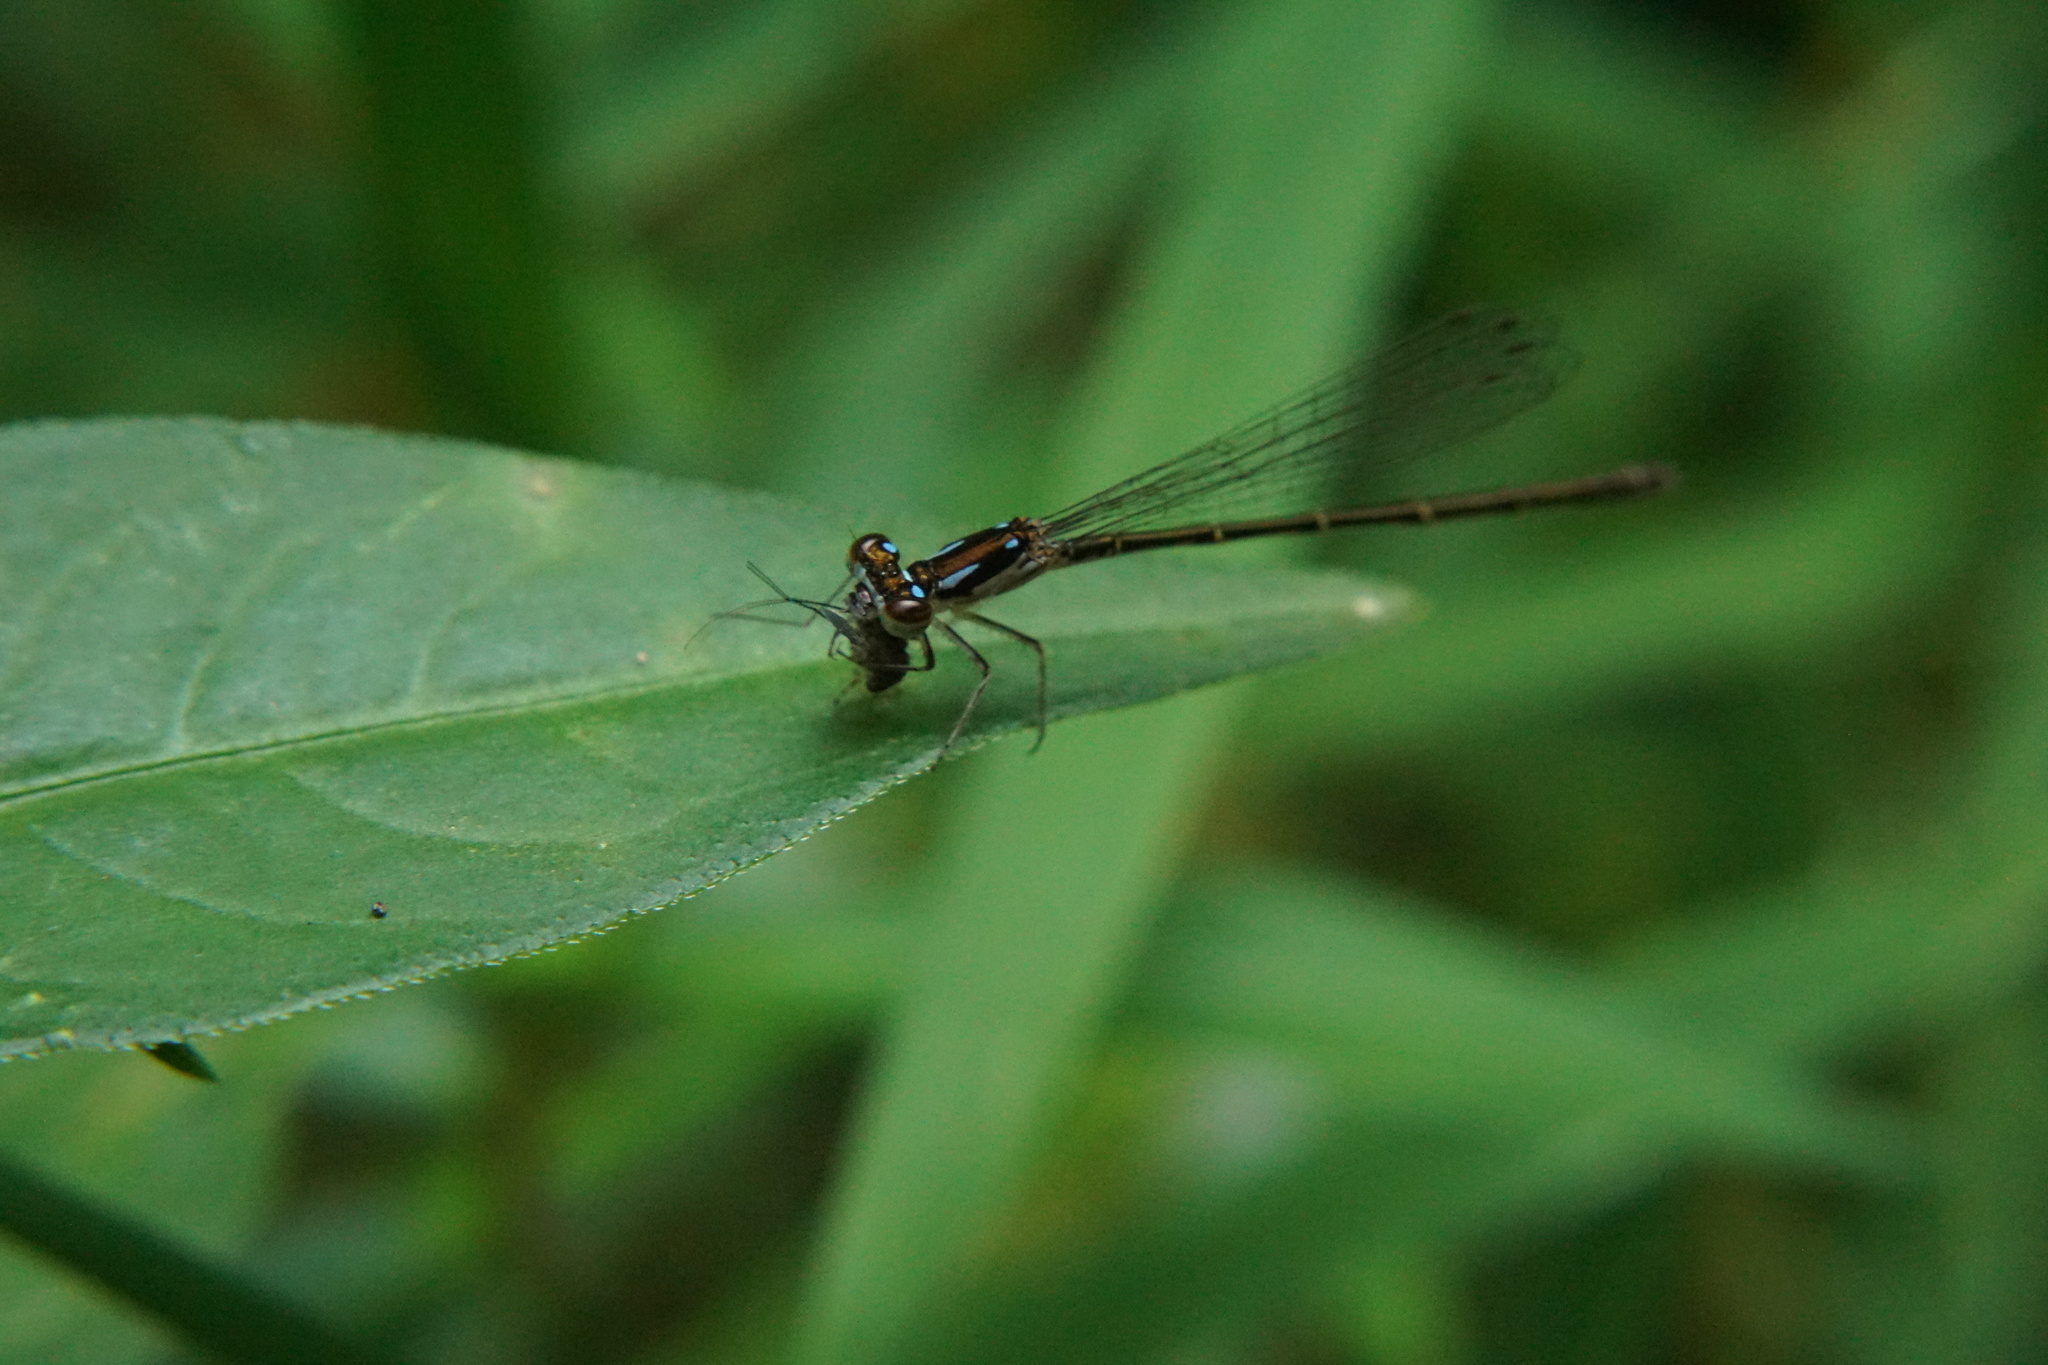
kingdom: Animalia
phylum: Arthropoda
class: Insecta
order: Odonata
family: Coenagrionidae
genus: Ischnura
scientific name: Ischnura posita
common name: Fragile forktail
